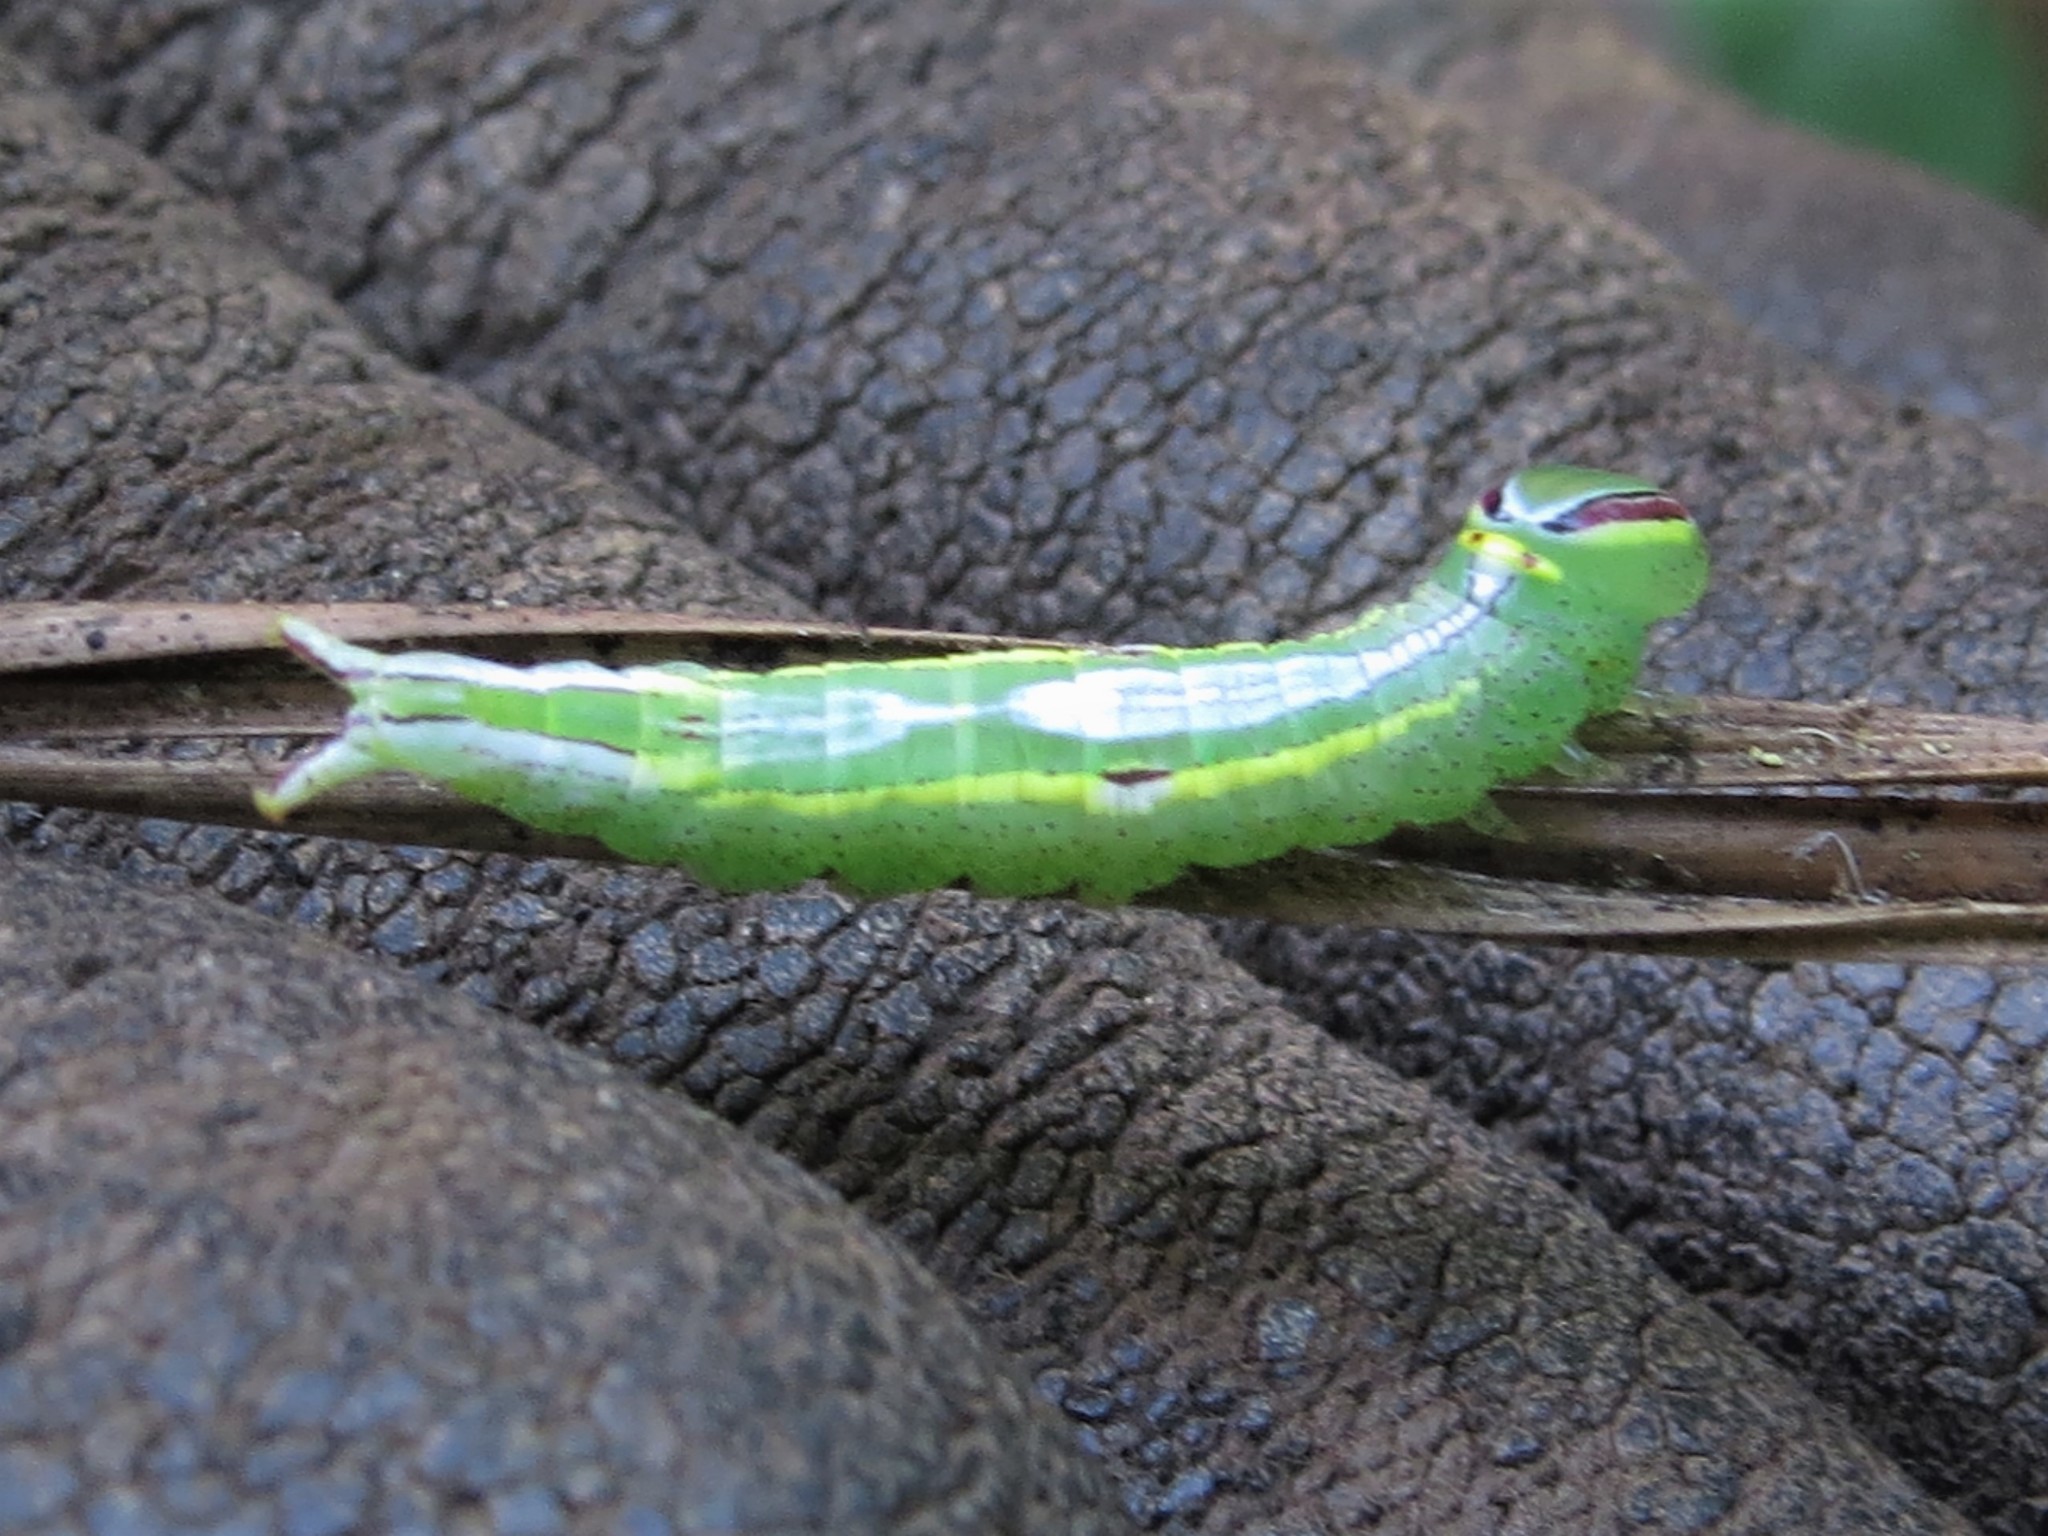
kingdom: Animalia
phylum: Arthropoda
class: Insecta
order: Lepidoptera
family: Notodontidae
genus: Disphragis
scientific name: Disphragis Cecrita guttivitta
